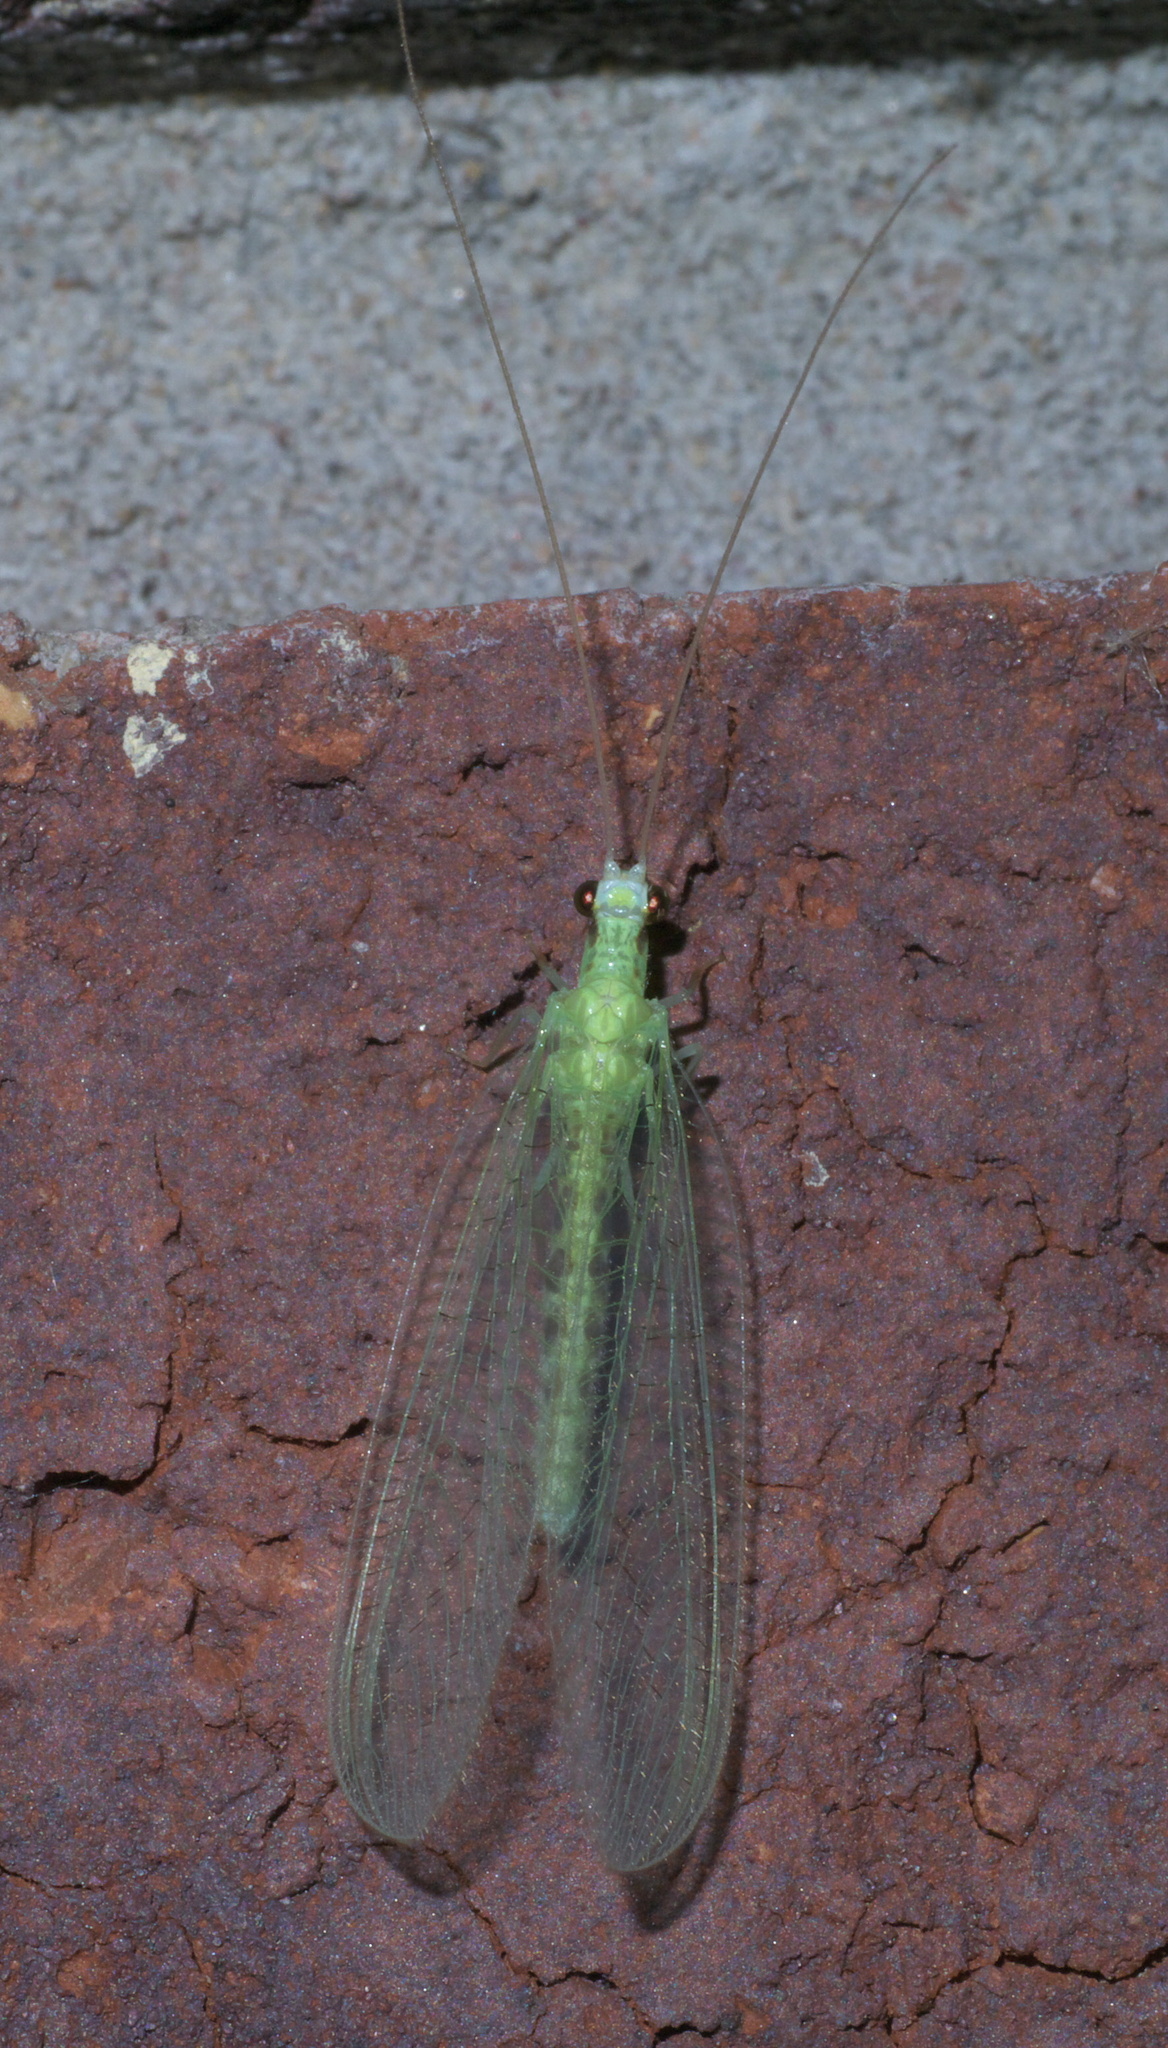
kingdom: Animalia
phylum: Arthropoda
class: Insecta
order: Neuroptera
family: Chrysopidae
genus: Chrysopa
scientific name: Chrysopa quadripunctata
